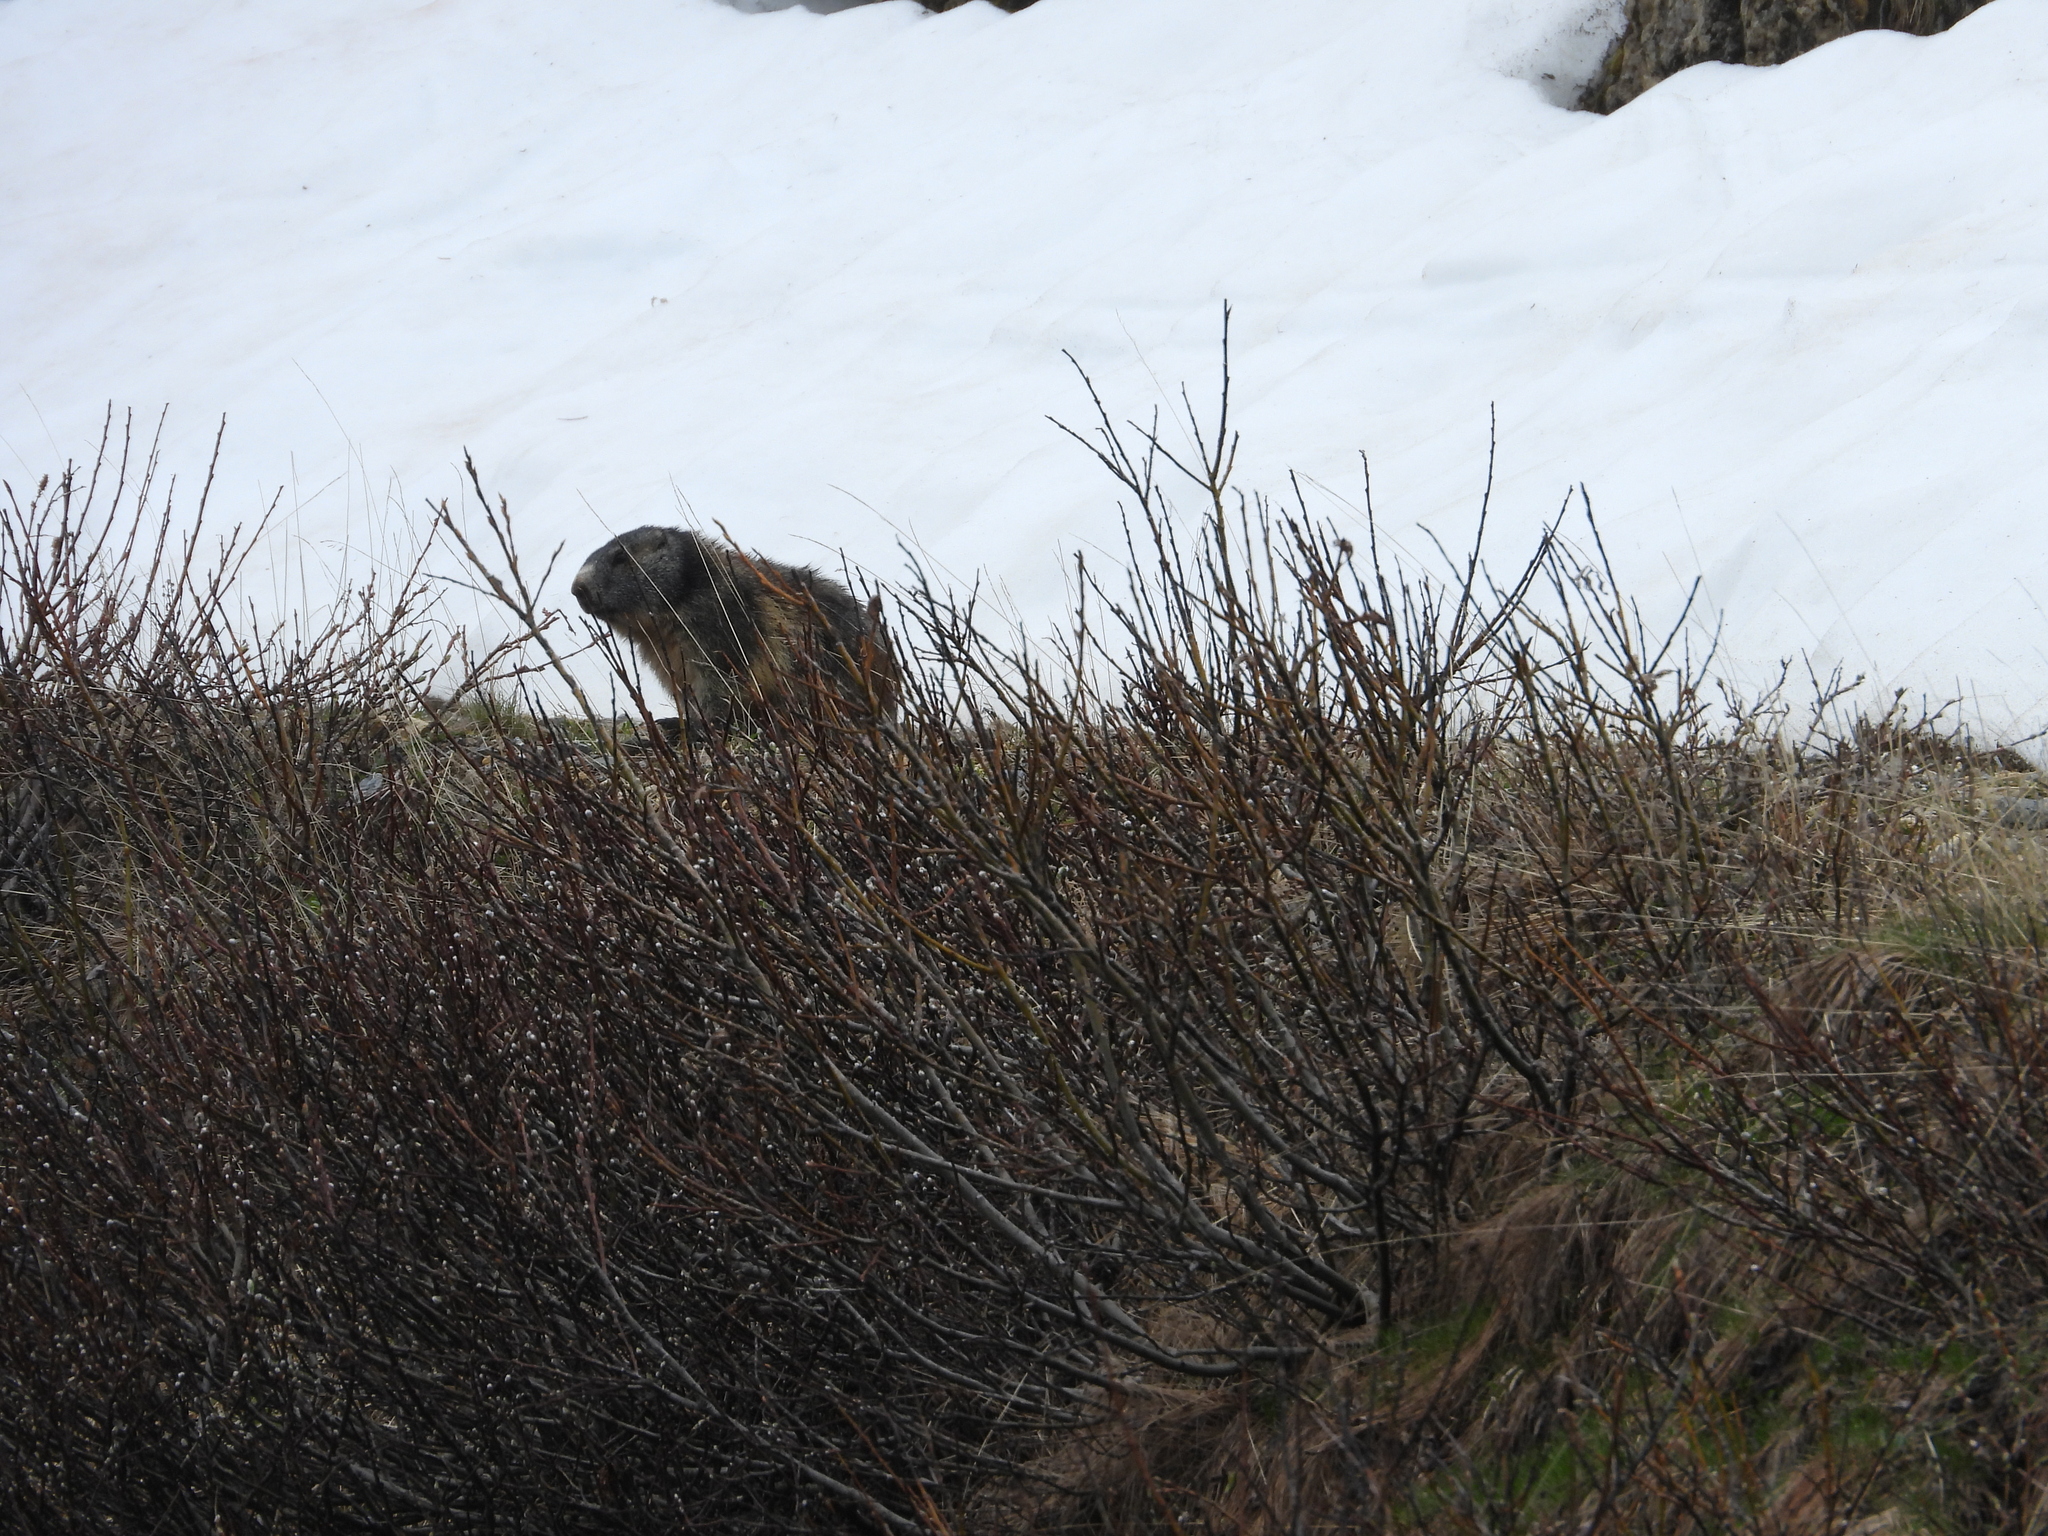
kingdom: Animalia
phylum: Chordata
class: Mammalia
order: Rodentia
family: Sciuridae
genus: Marmota
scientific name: Marmota marmota
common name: Alpine marmot
